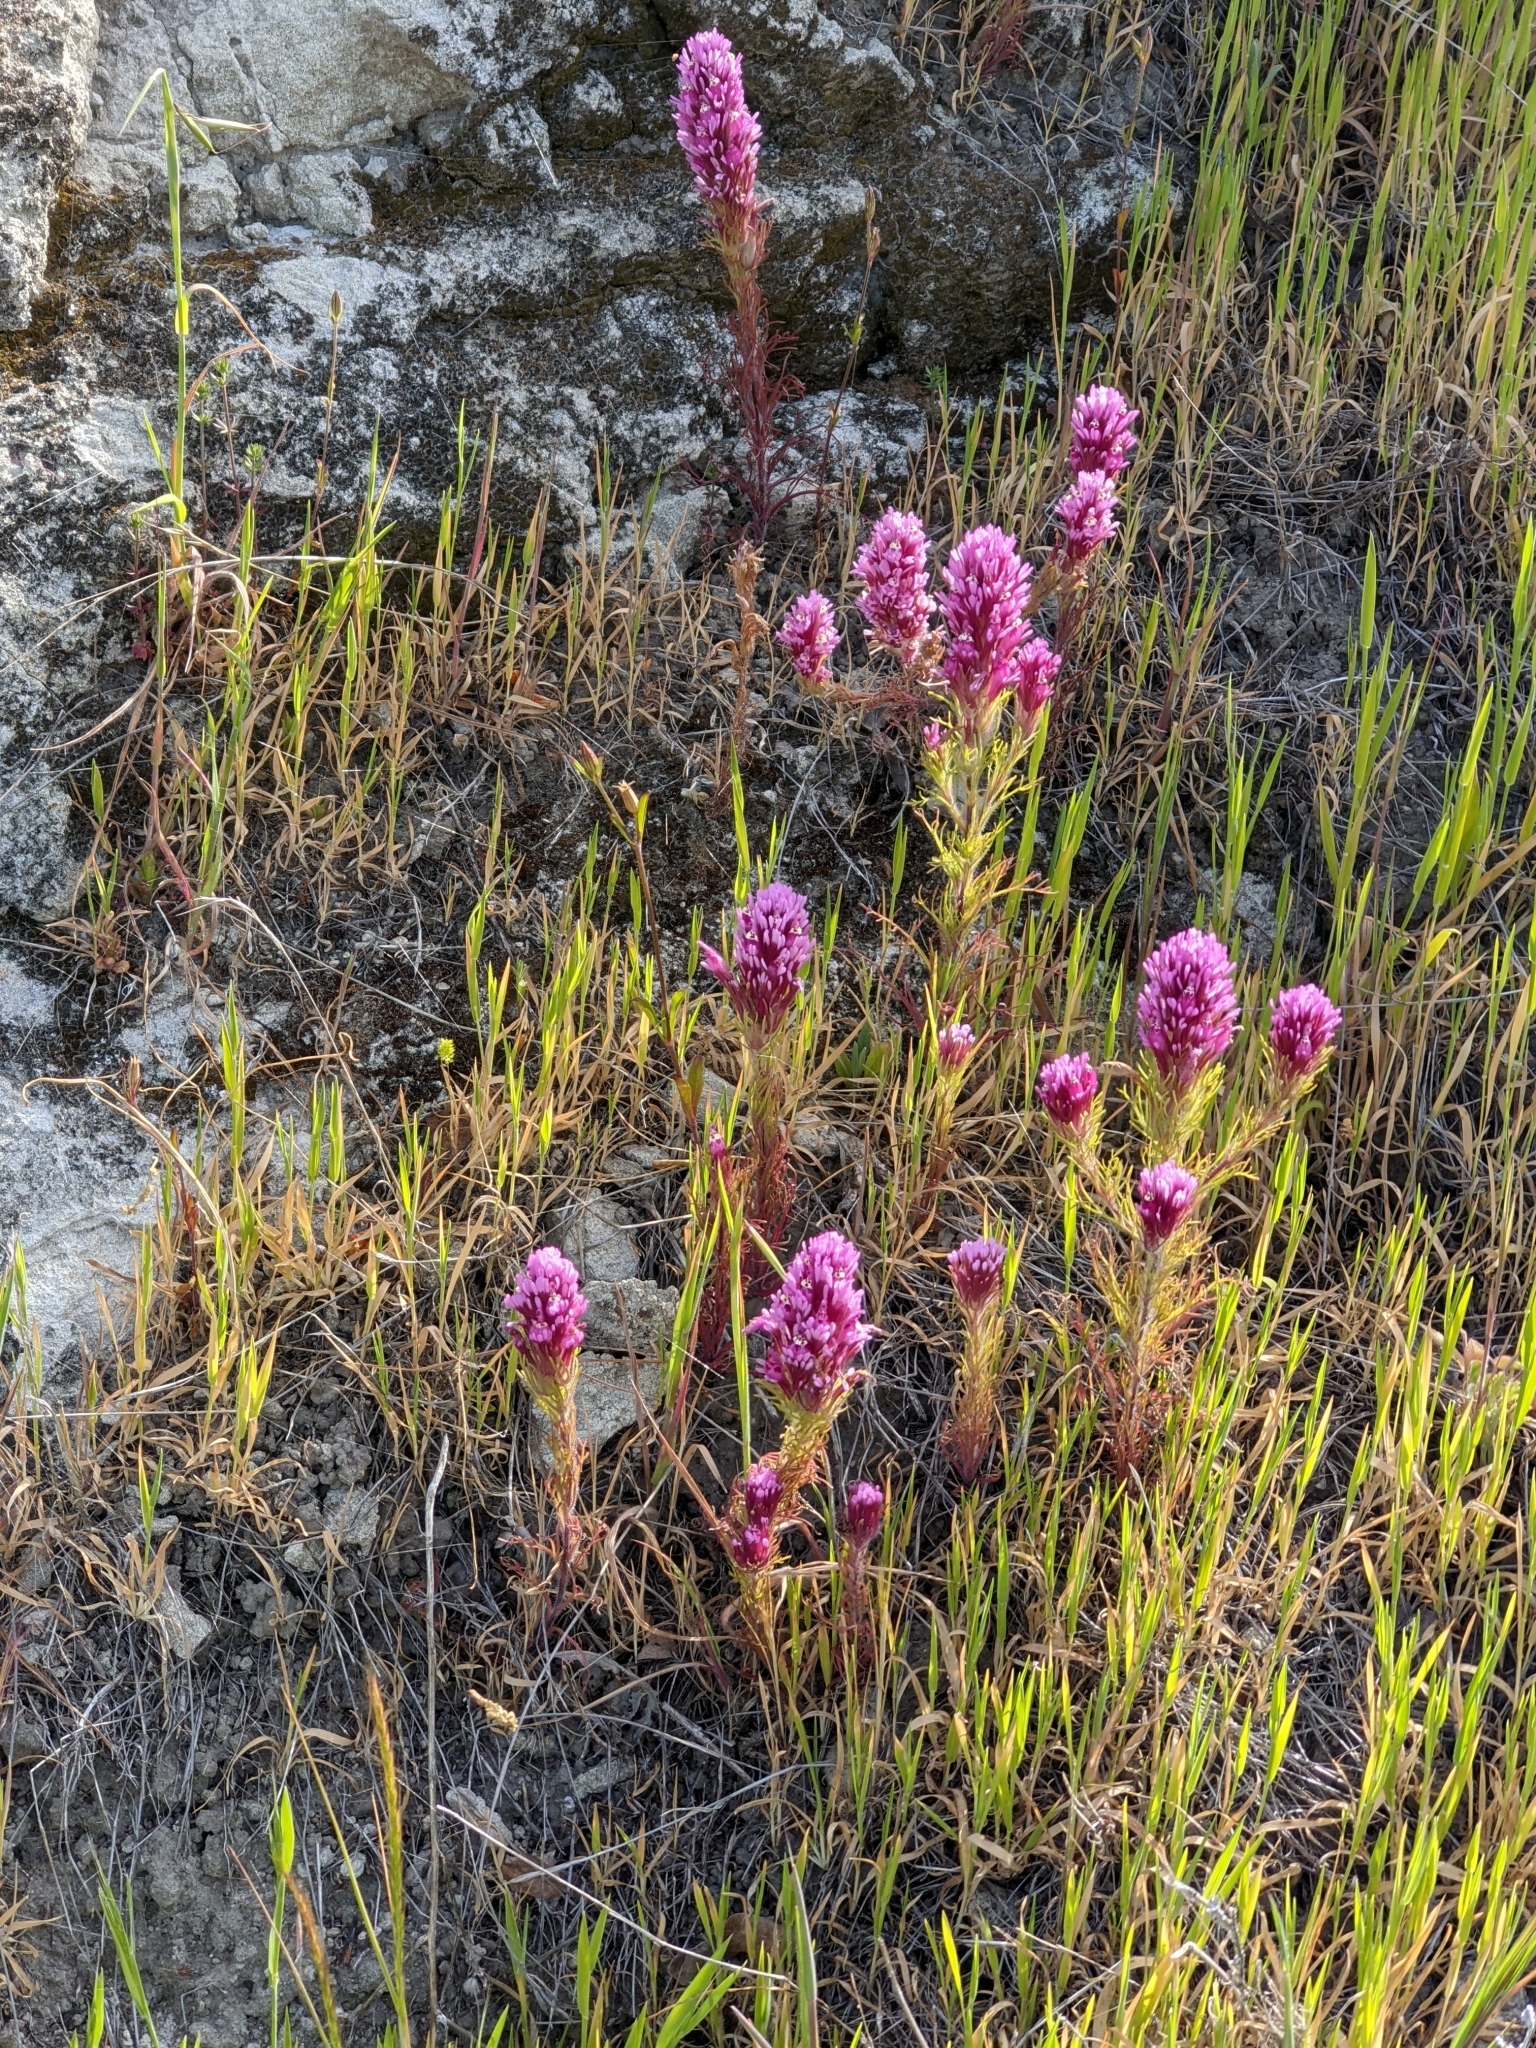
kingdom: Plantae
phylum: Tracheophyta
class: Magnoliopsida
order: Lamiales
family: Orobanchaceae
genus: Castilleja
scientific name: Castilleja exserta
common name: Purple owl-clover
